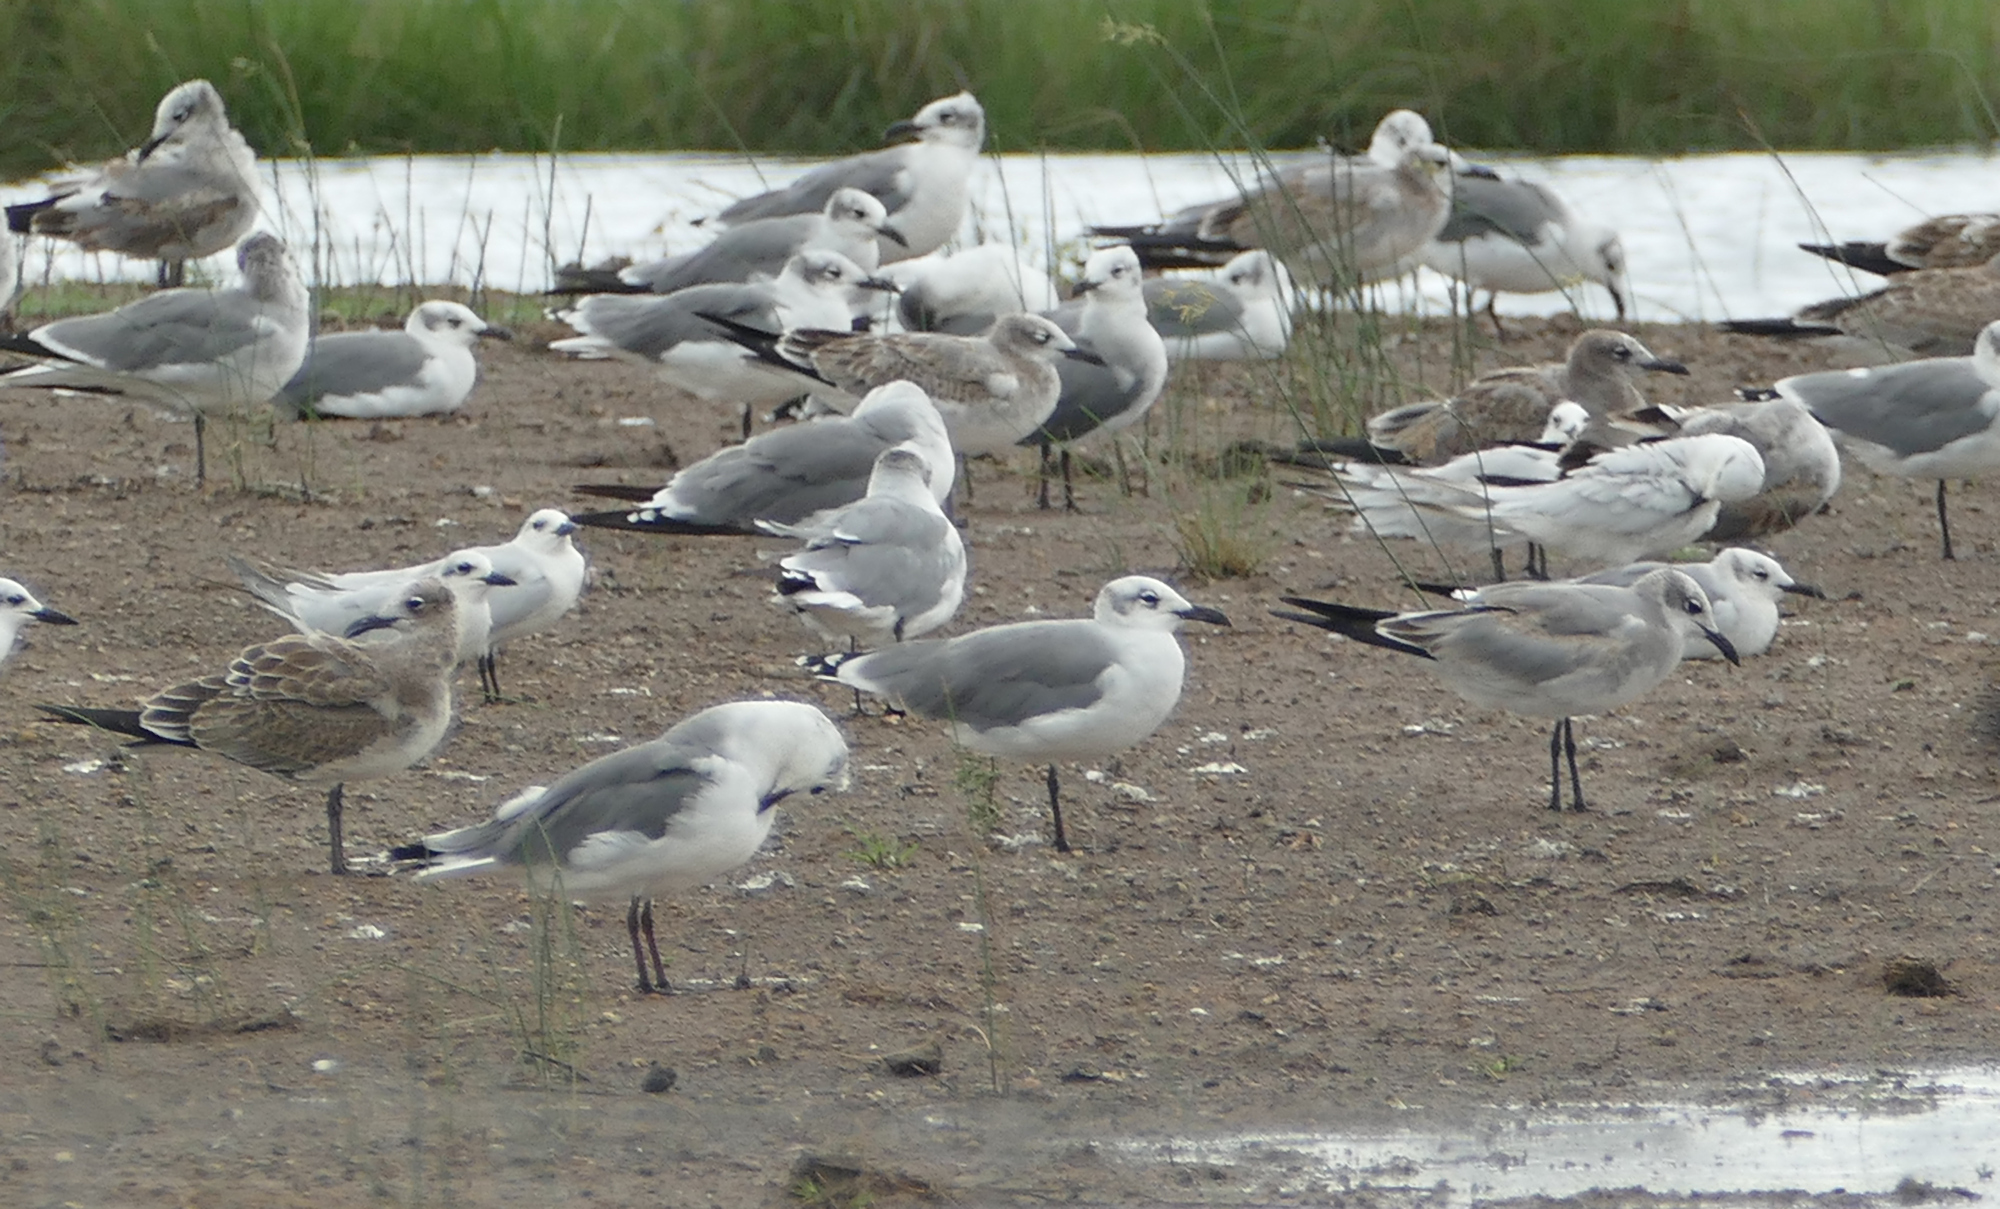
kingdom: Animalia
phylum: Chordata
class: Aves
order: Charadriiformes
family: Laridae
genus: Leucophaeus
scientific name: Leucophaeus atricilla
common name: Laughing gull
